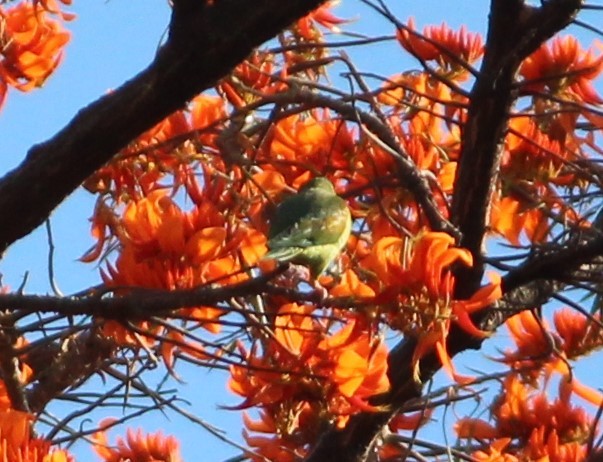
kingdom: Animalia
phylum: Chordata
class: Aves
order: Psittaciformes
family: Psittacidae
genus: Brotogeris
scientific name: Brotogeris jugularis
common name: Orange-chinned parakeet
